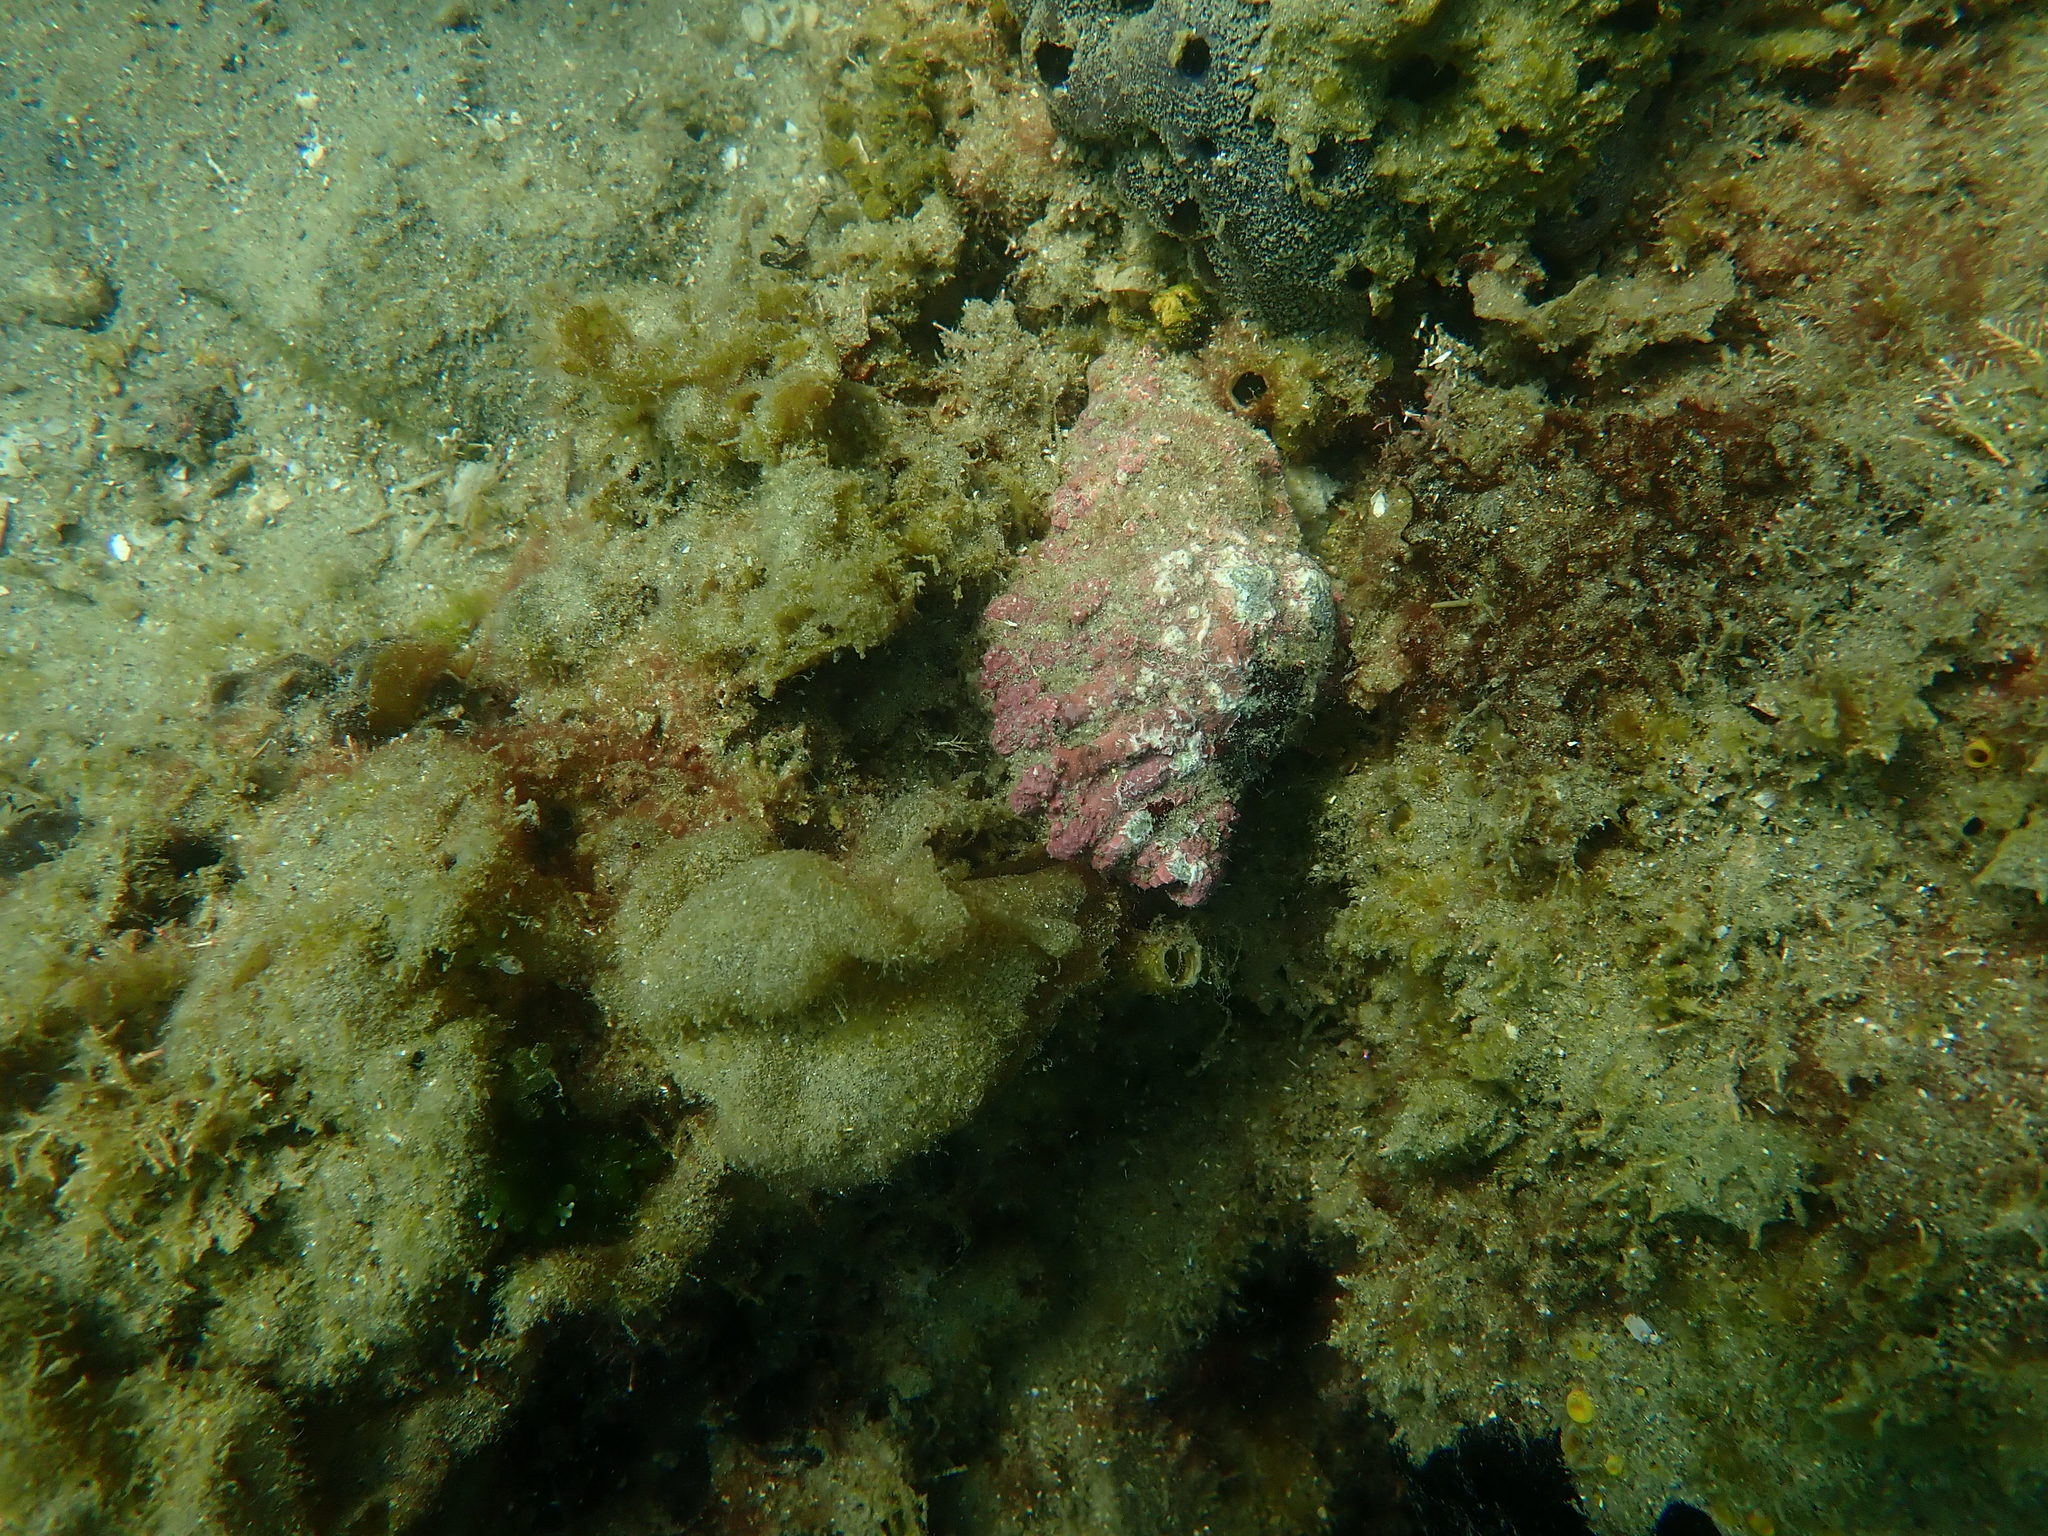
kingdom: Animalia
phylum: Mollusca
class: Gastropoda
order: Littorinimorpha
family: Cymatiidae
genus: Cabestana
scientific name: Cabestana spengleri
